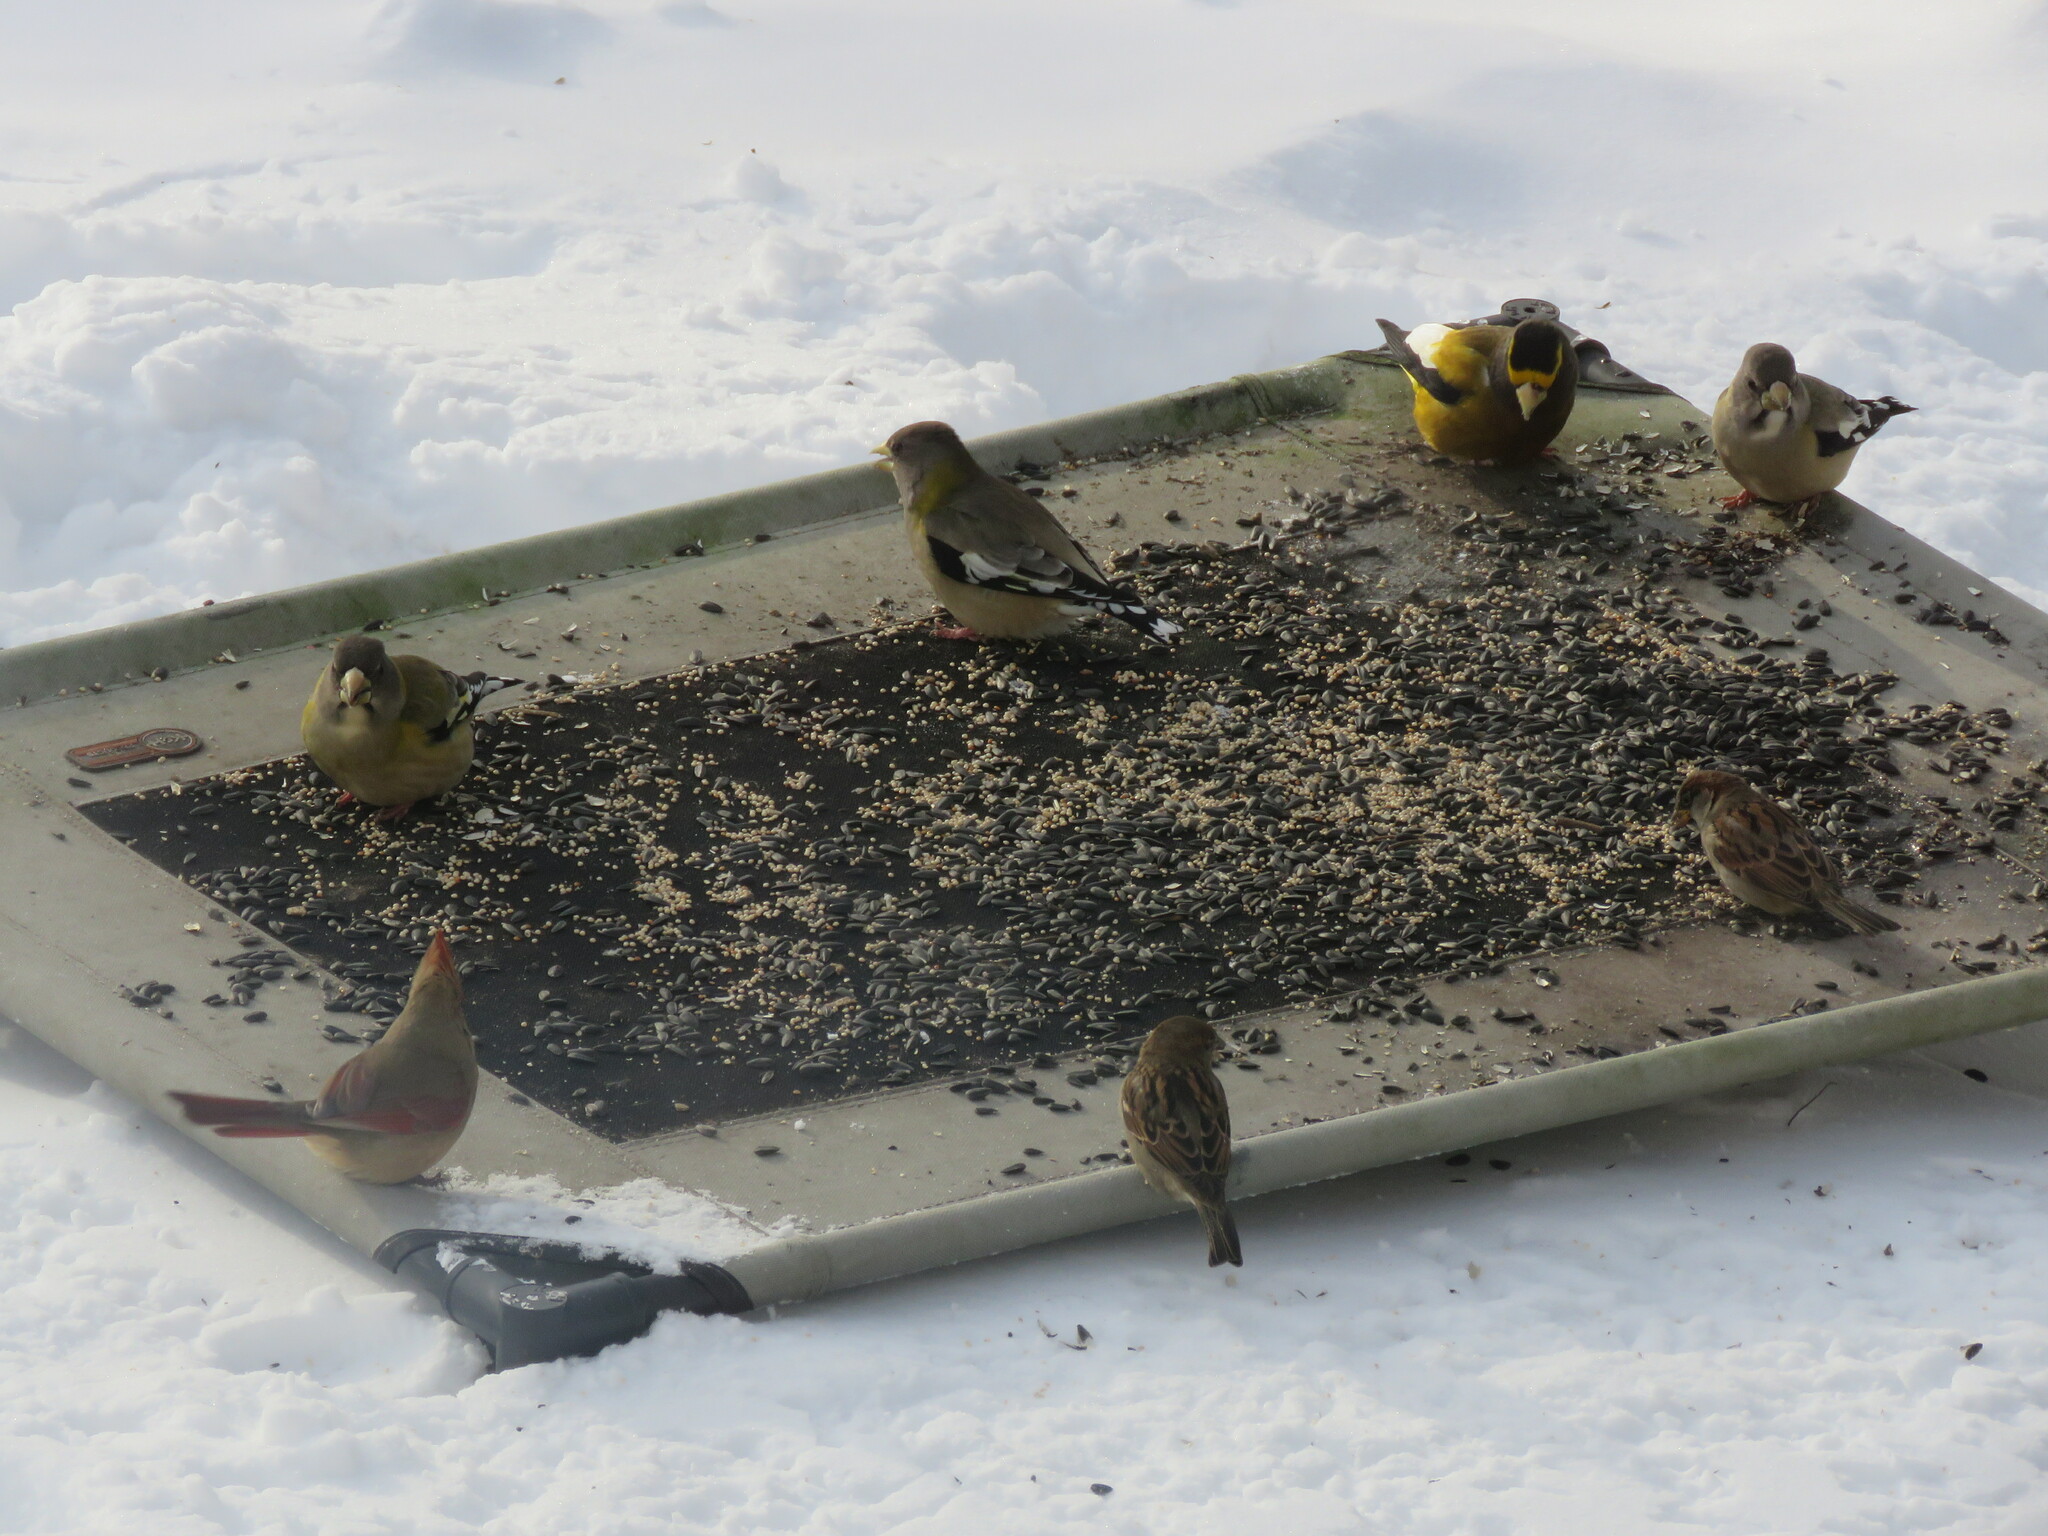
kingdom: Animalia
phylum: Chordata
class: Aves
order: Passeriformes
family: Fringillidae
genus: Hesperiphona
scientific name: Hesperiphona vespertina
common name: Evening grosbeak
